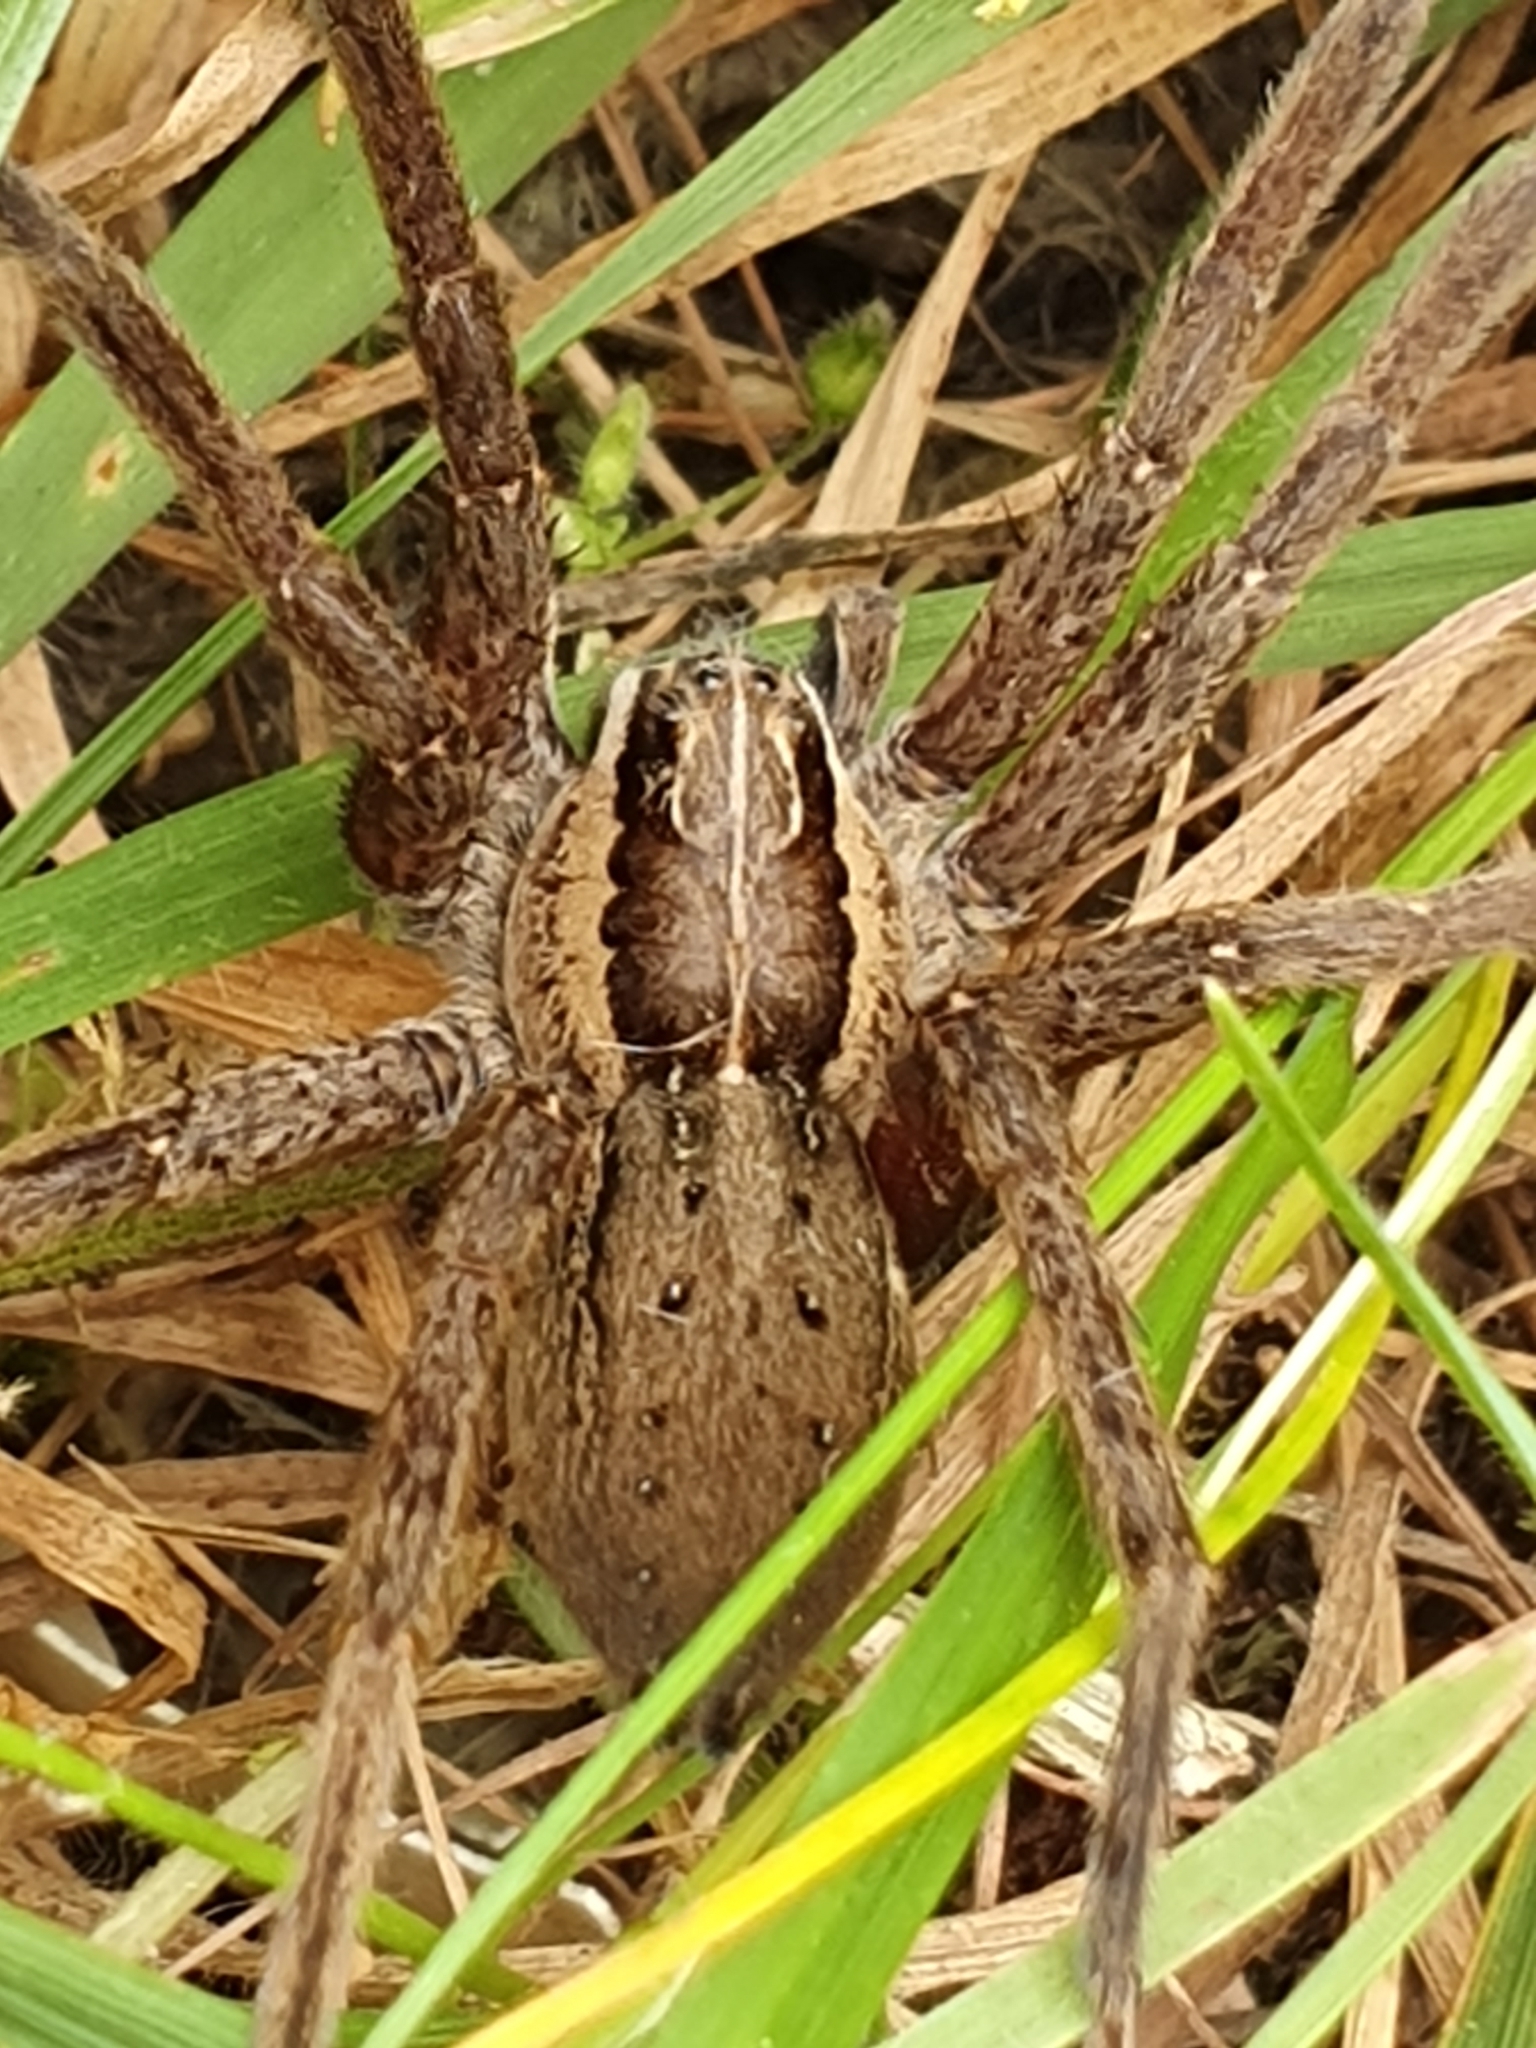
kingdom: Animalia
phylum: Arthropoda
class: Arachnida
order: Araneae
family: Pisauridae
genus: Dolomedes
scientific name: Dolomedes minor
